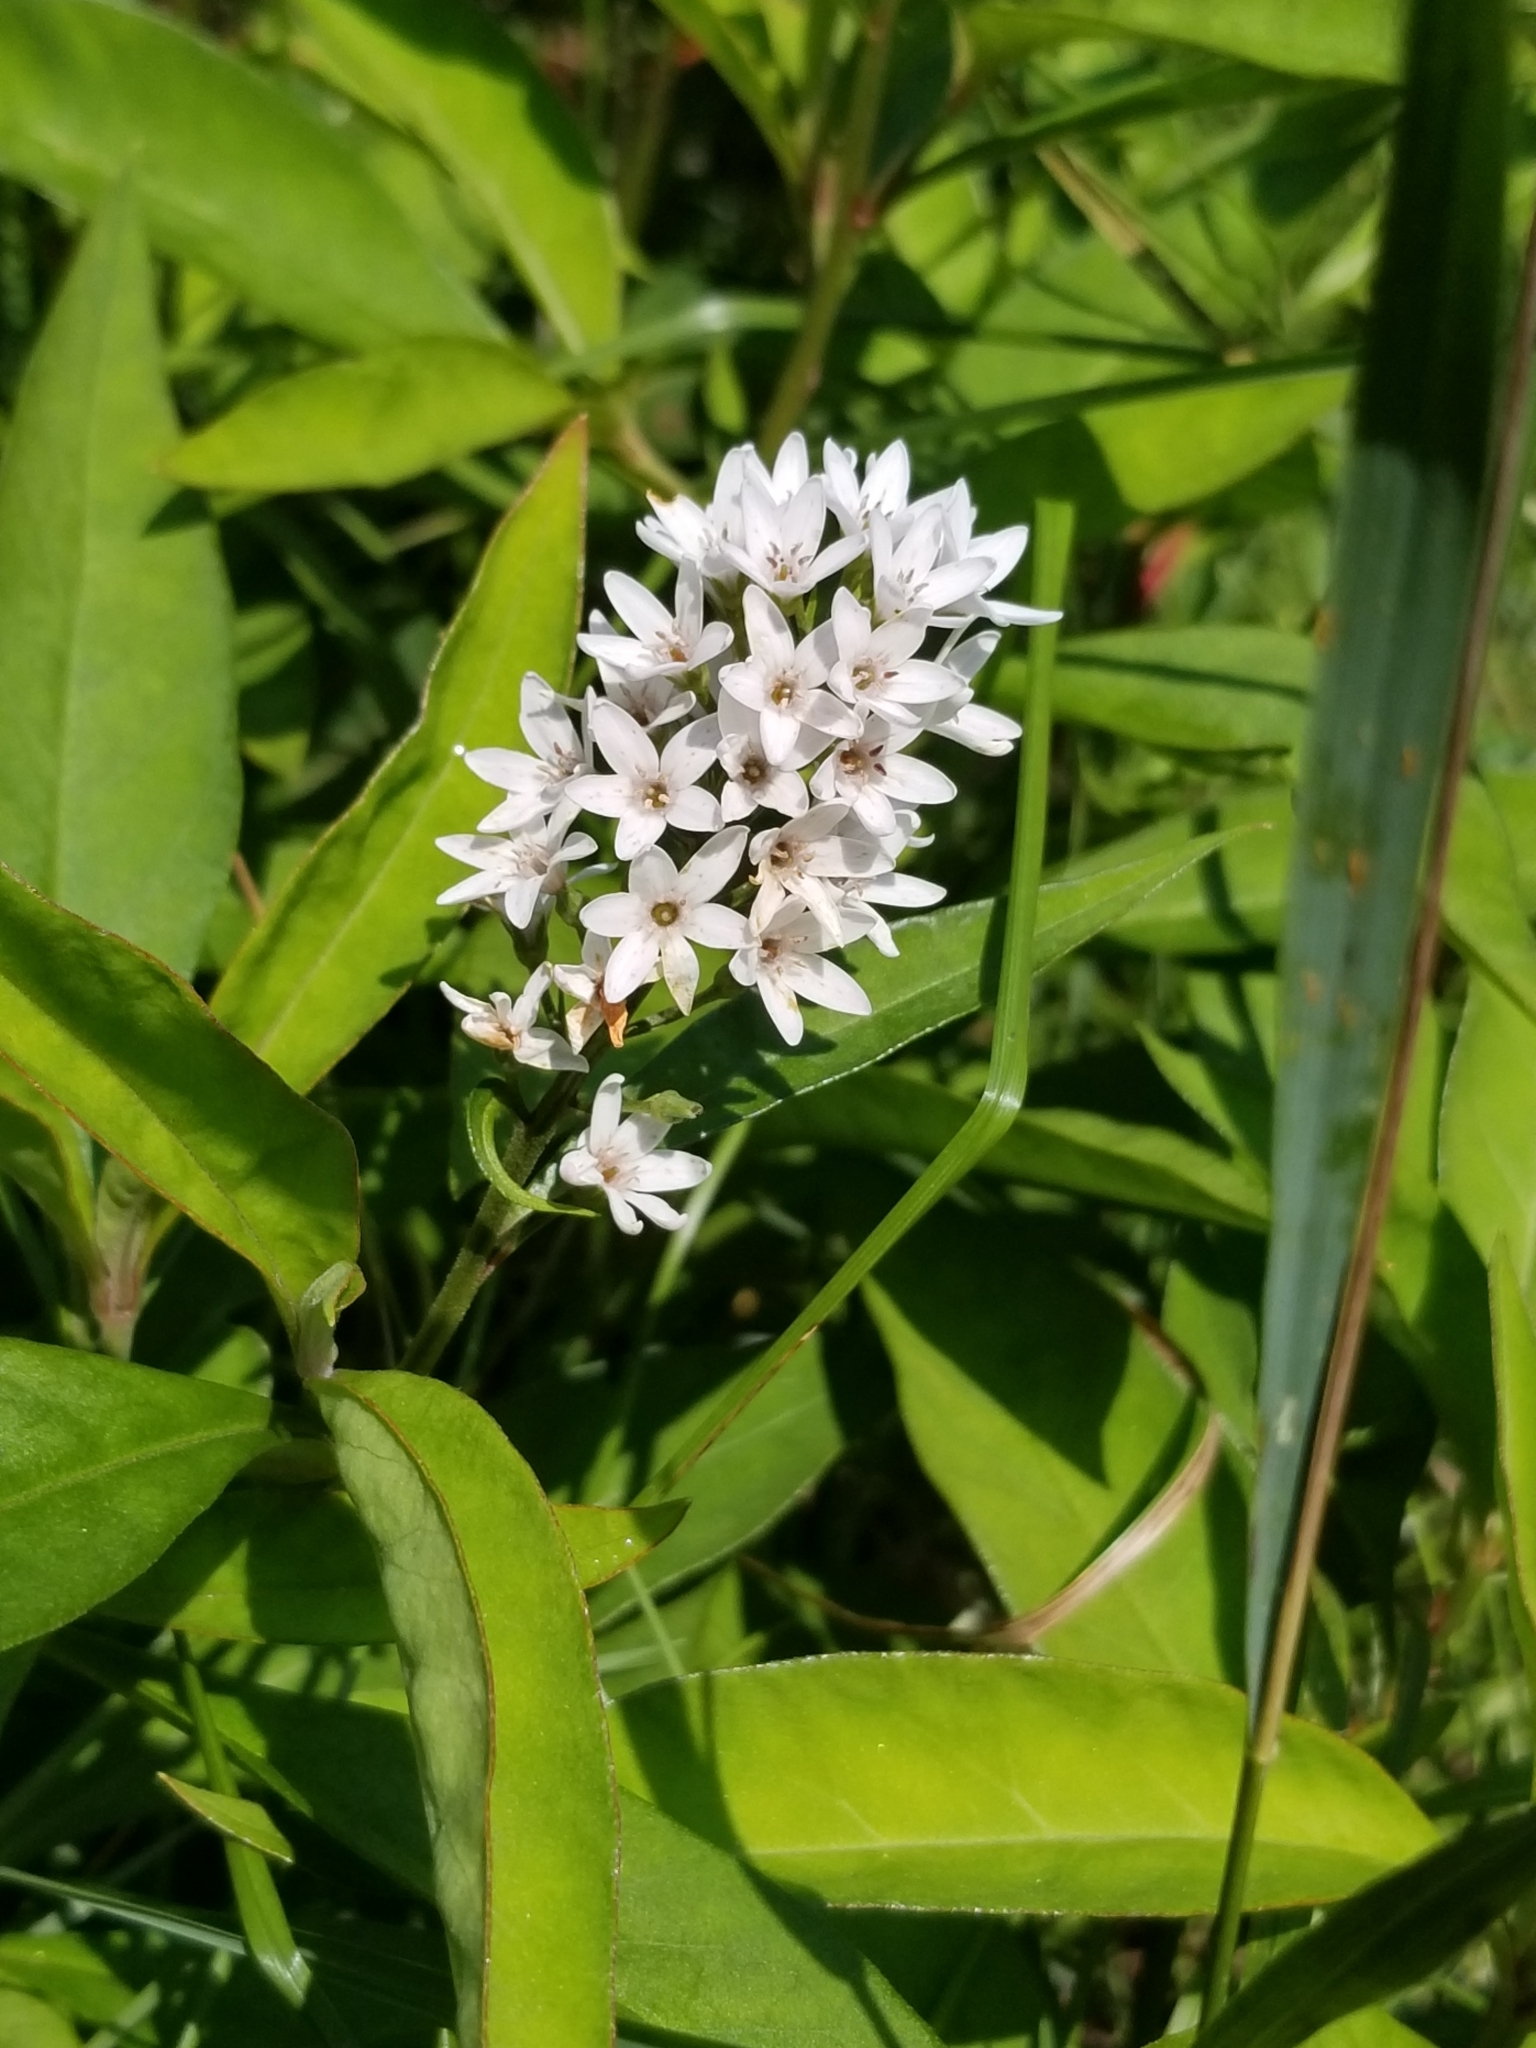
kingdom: Plantae
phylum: Tracheophyta
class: Magnoliopsida
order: Ericales
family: Primulaceae
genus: Lysimachia
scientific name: Lysimachia clethroides
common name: Gooseneck loosestrife
